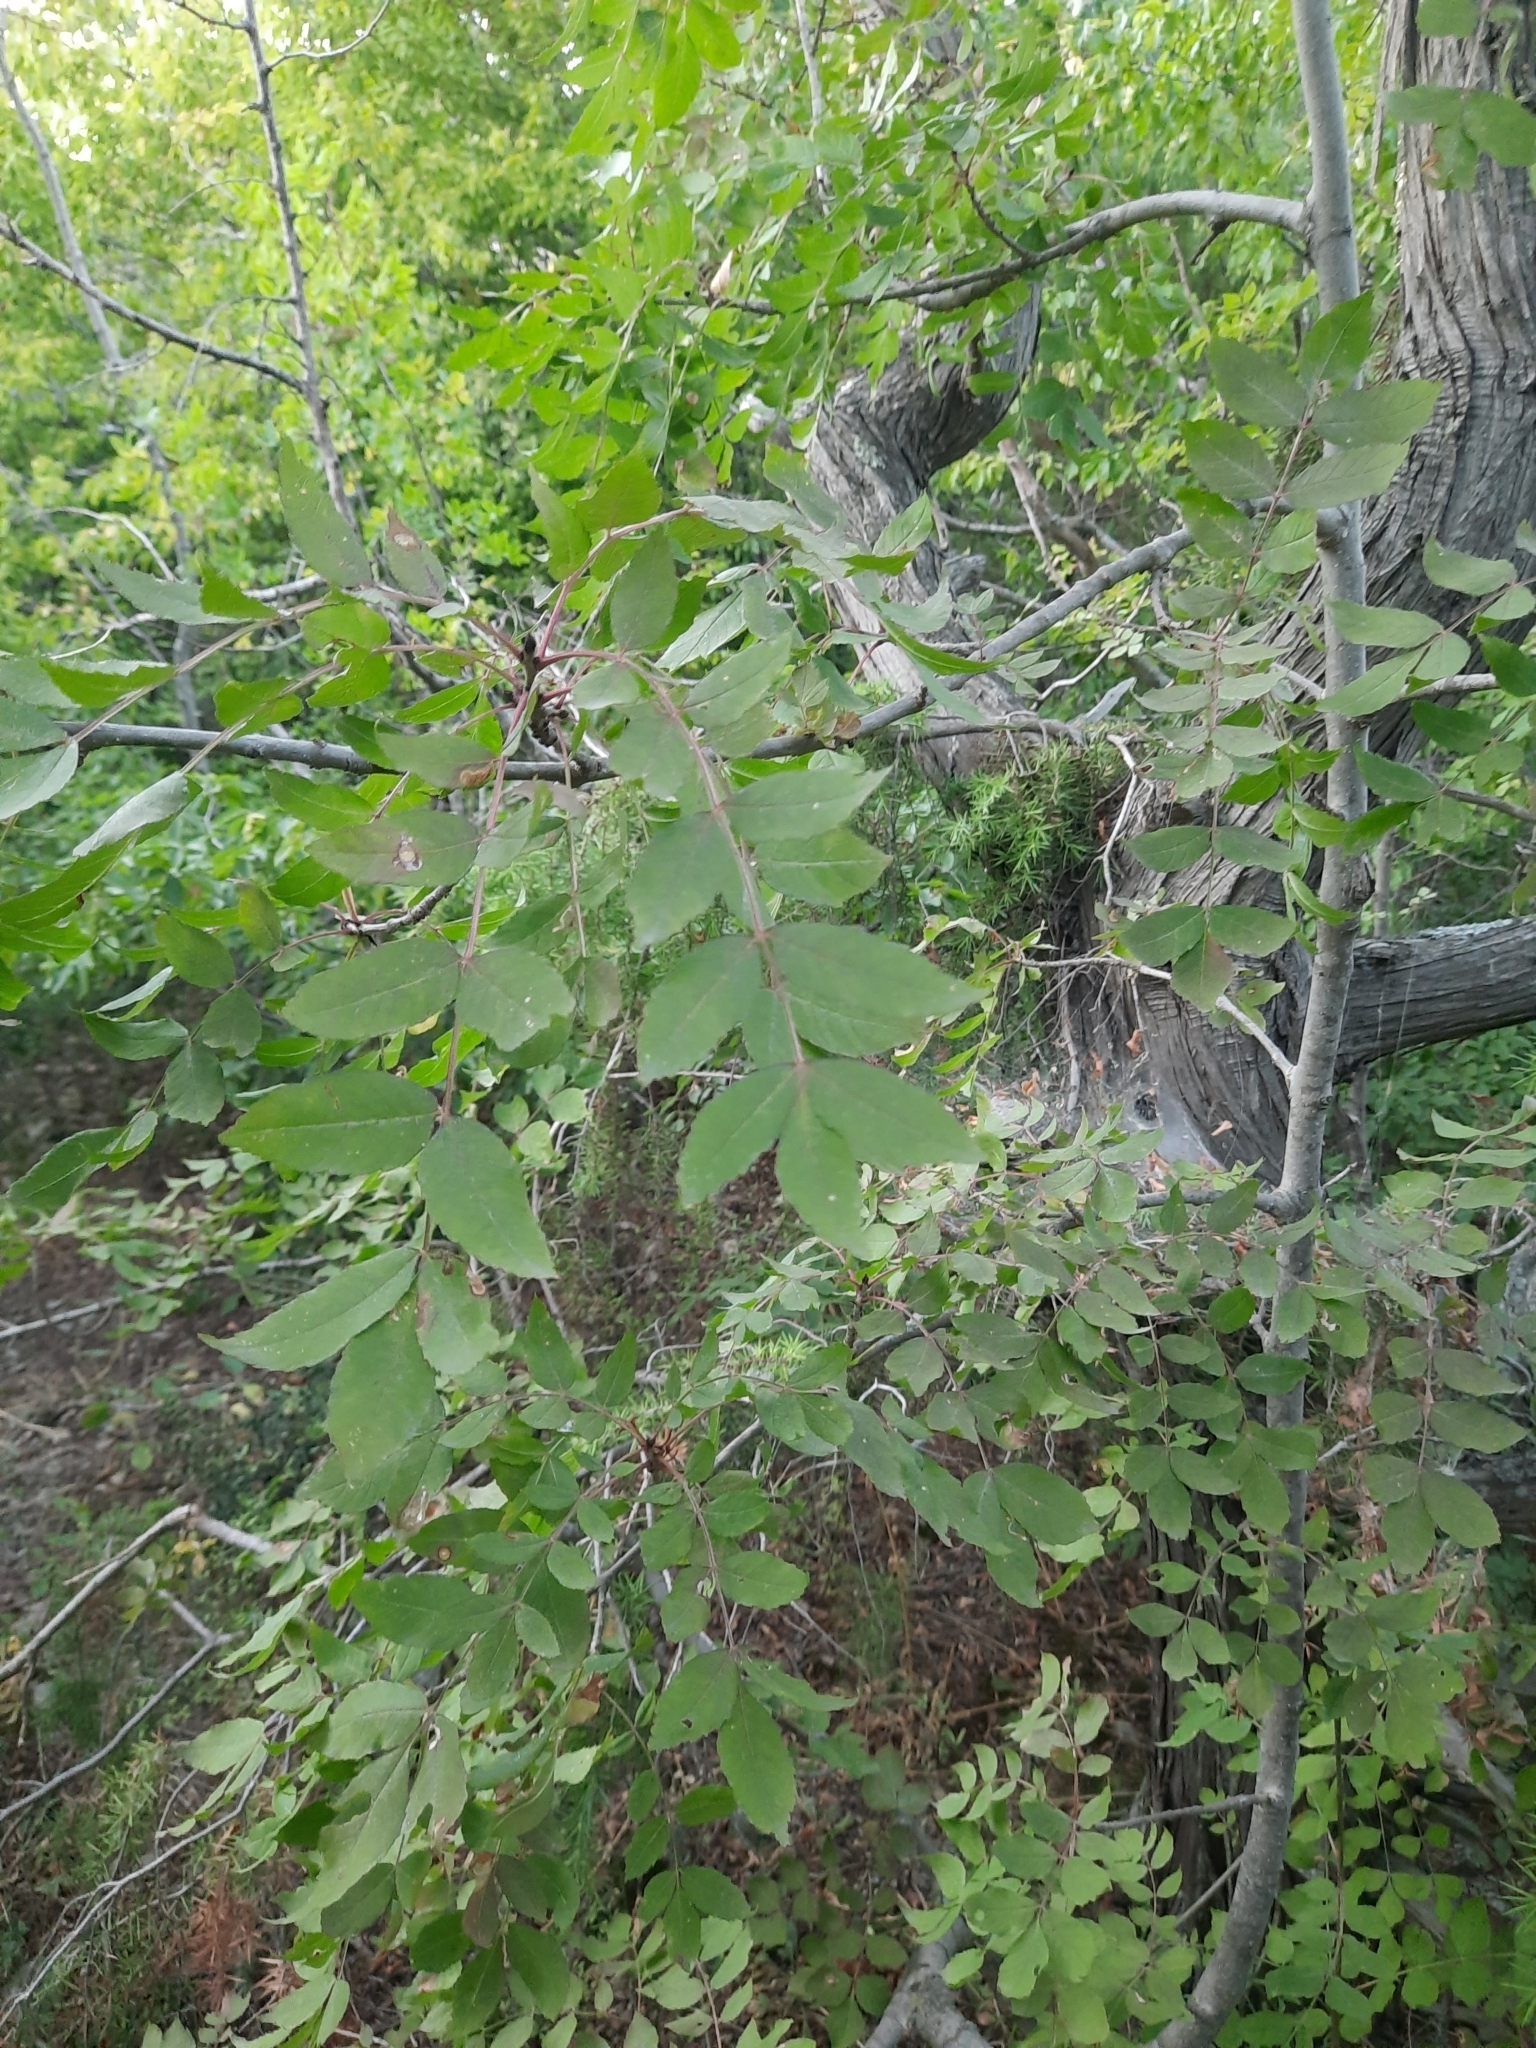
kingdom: Plantae
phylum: Tracheophyta
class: Magnoliopsida
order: Sapindales
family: Anacardiaceae
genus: Rhus
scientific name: Rhus coriaria
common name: Tanner's sumach
